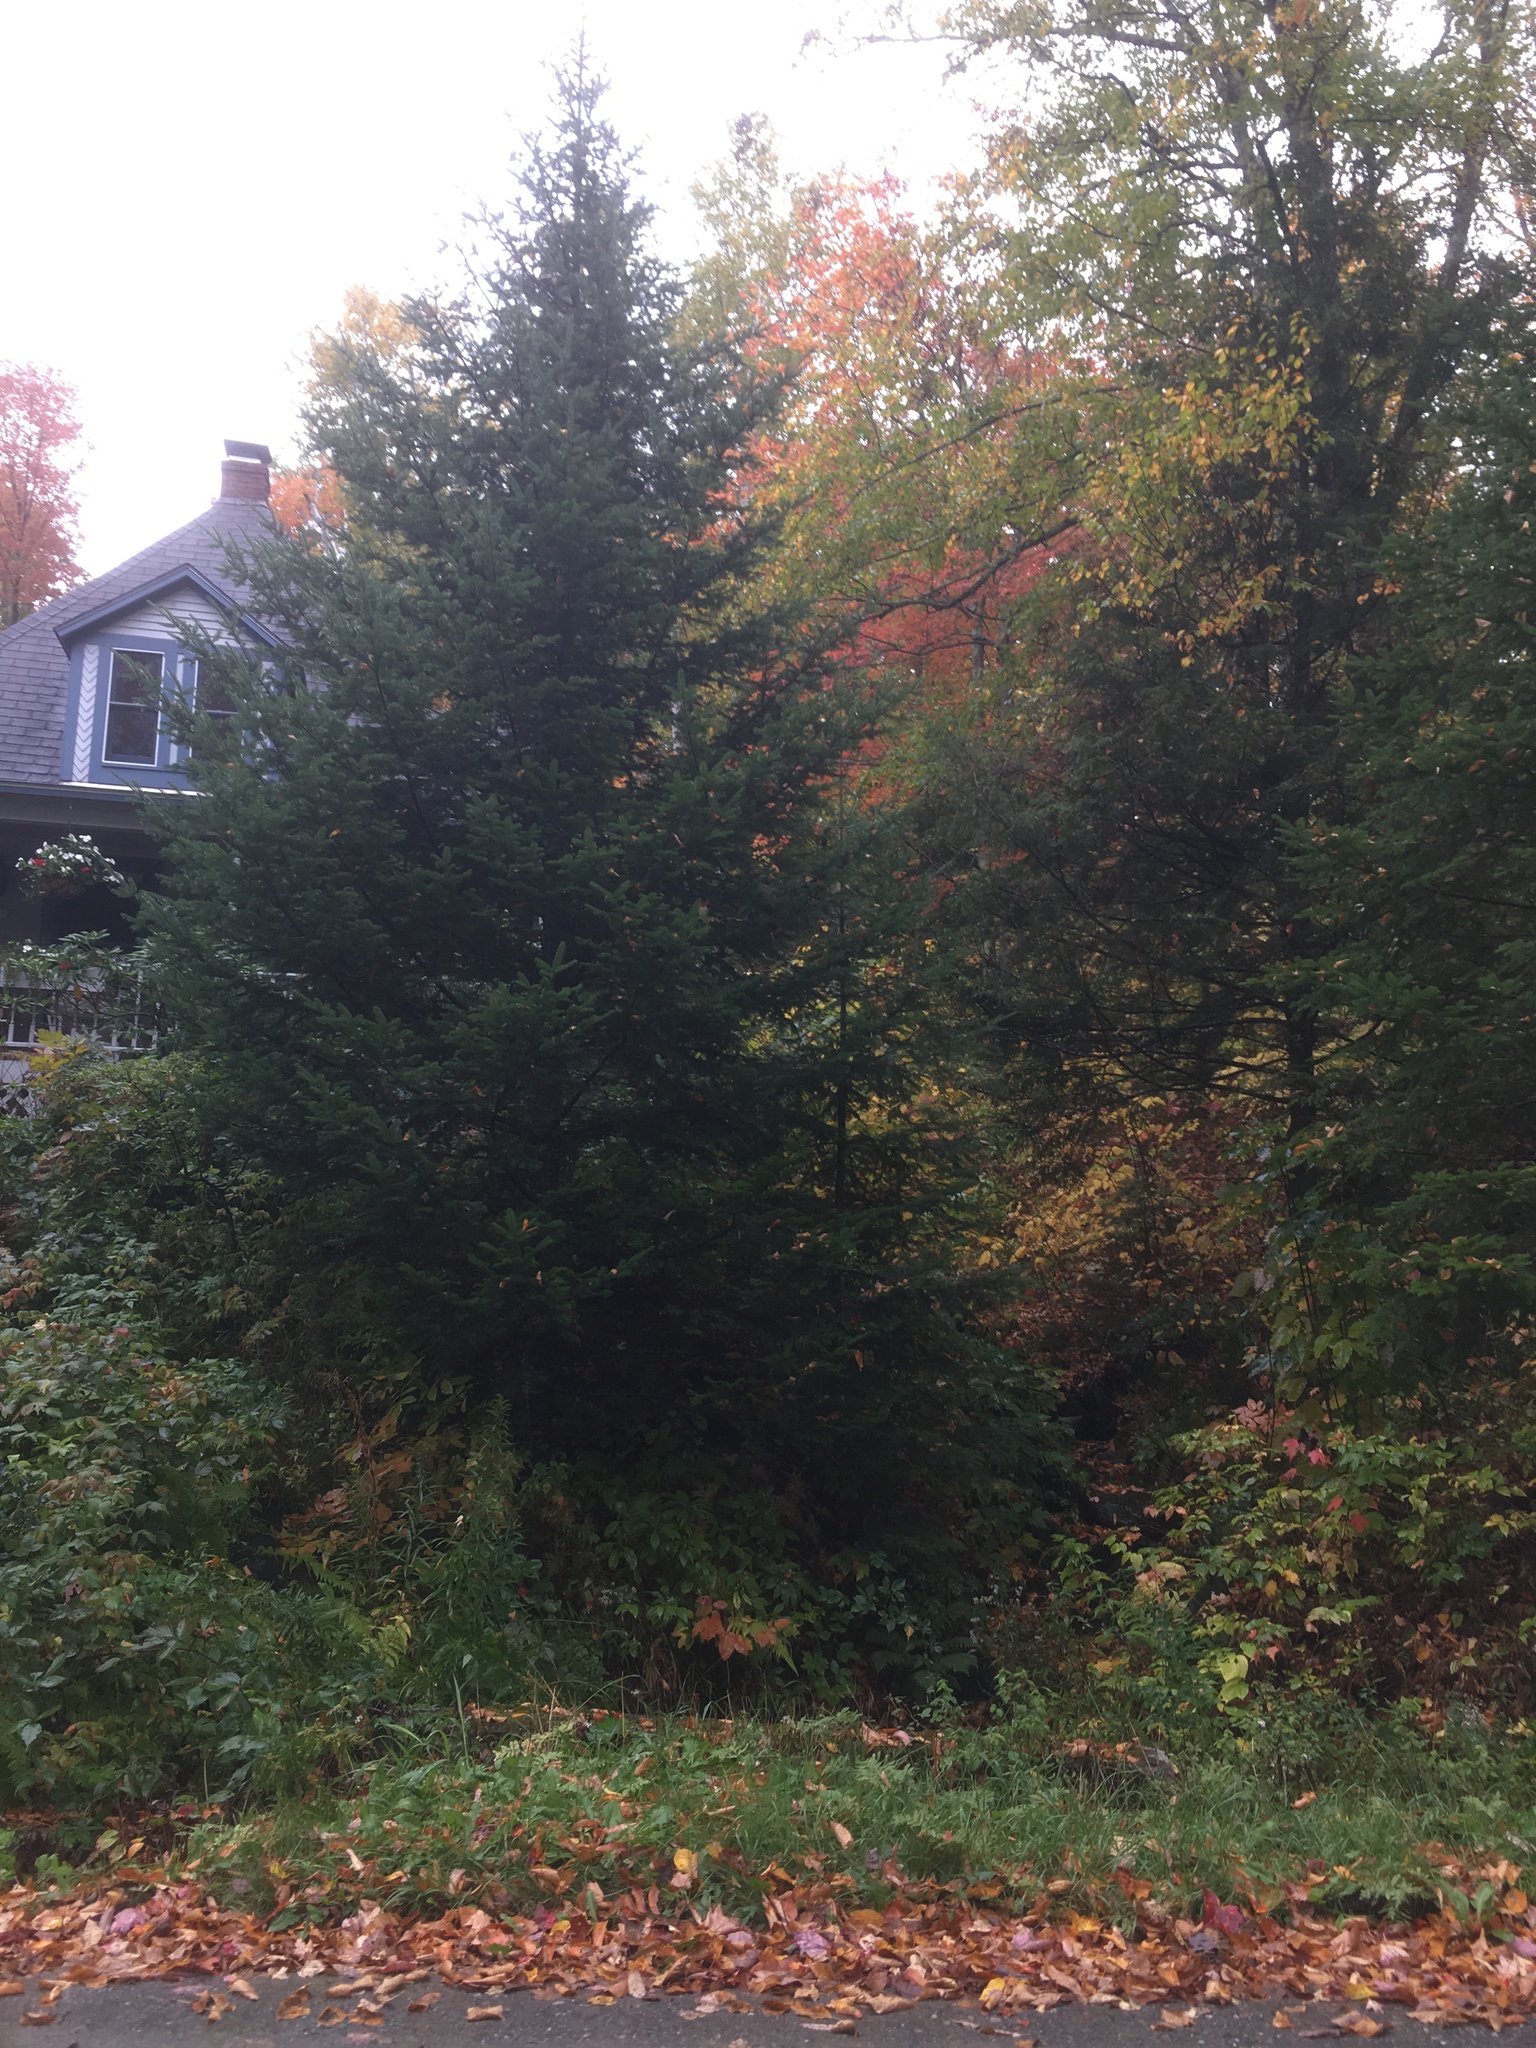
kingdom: Plantae
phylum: Tracheophyta
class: Pinopsida
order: Pinales
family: Pinaceae
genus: Abies
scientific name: Abies balsamea
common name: Balsam fir
